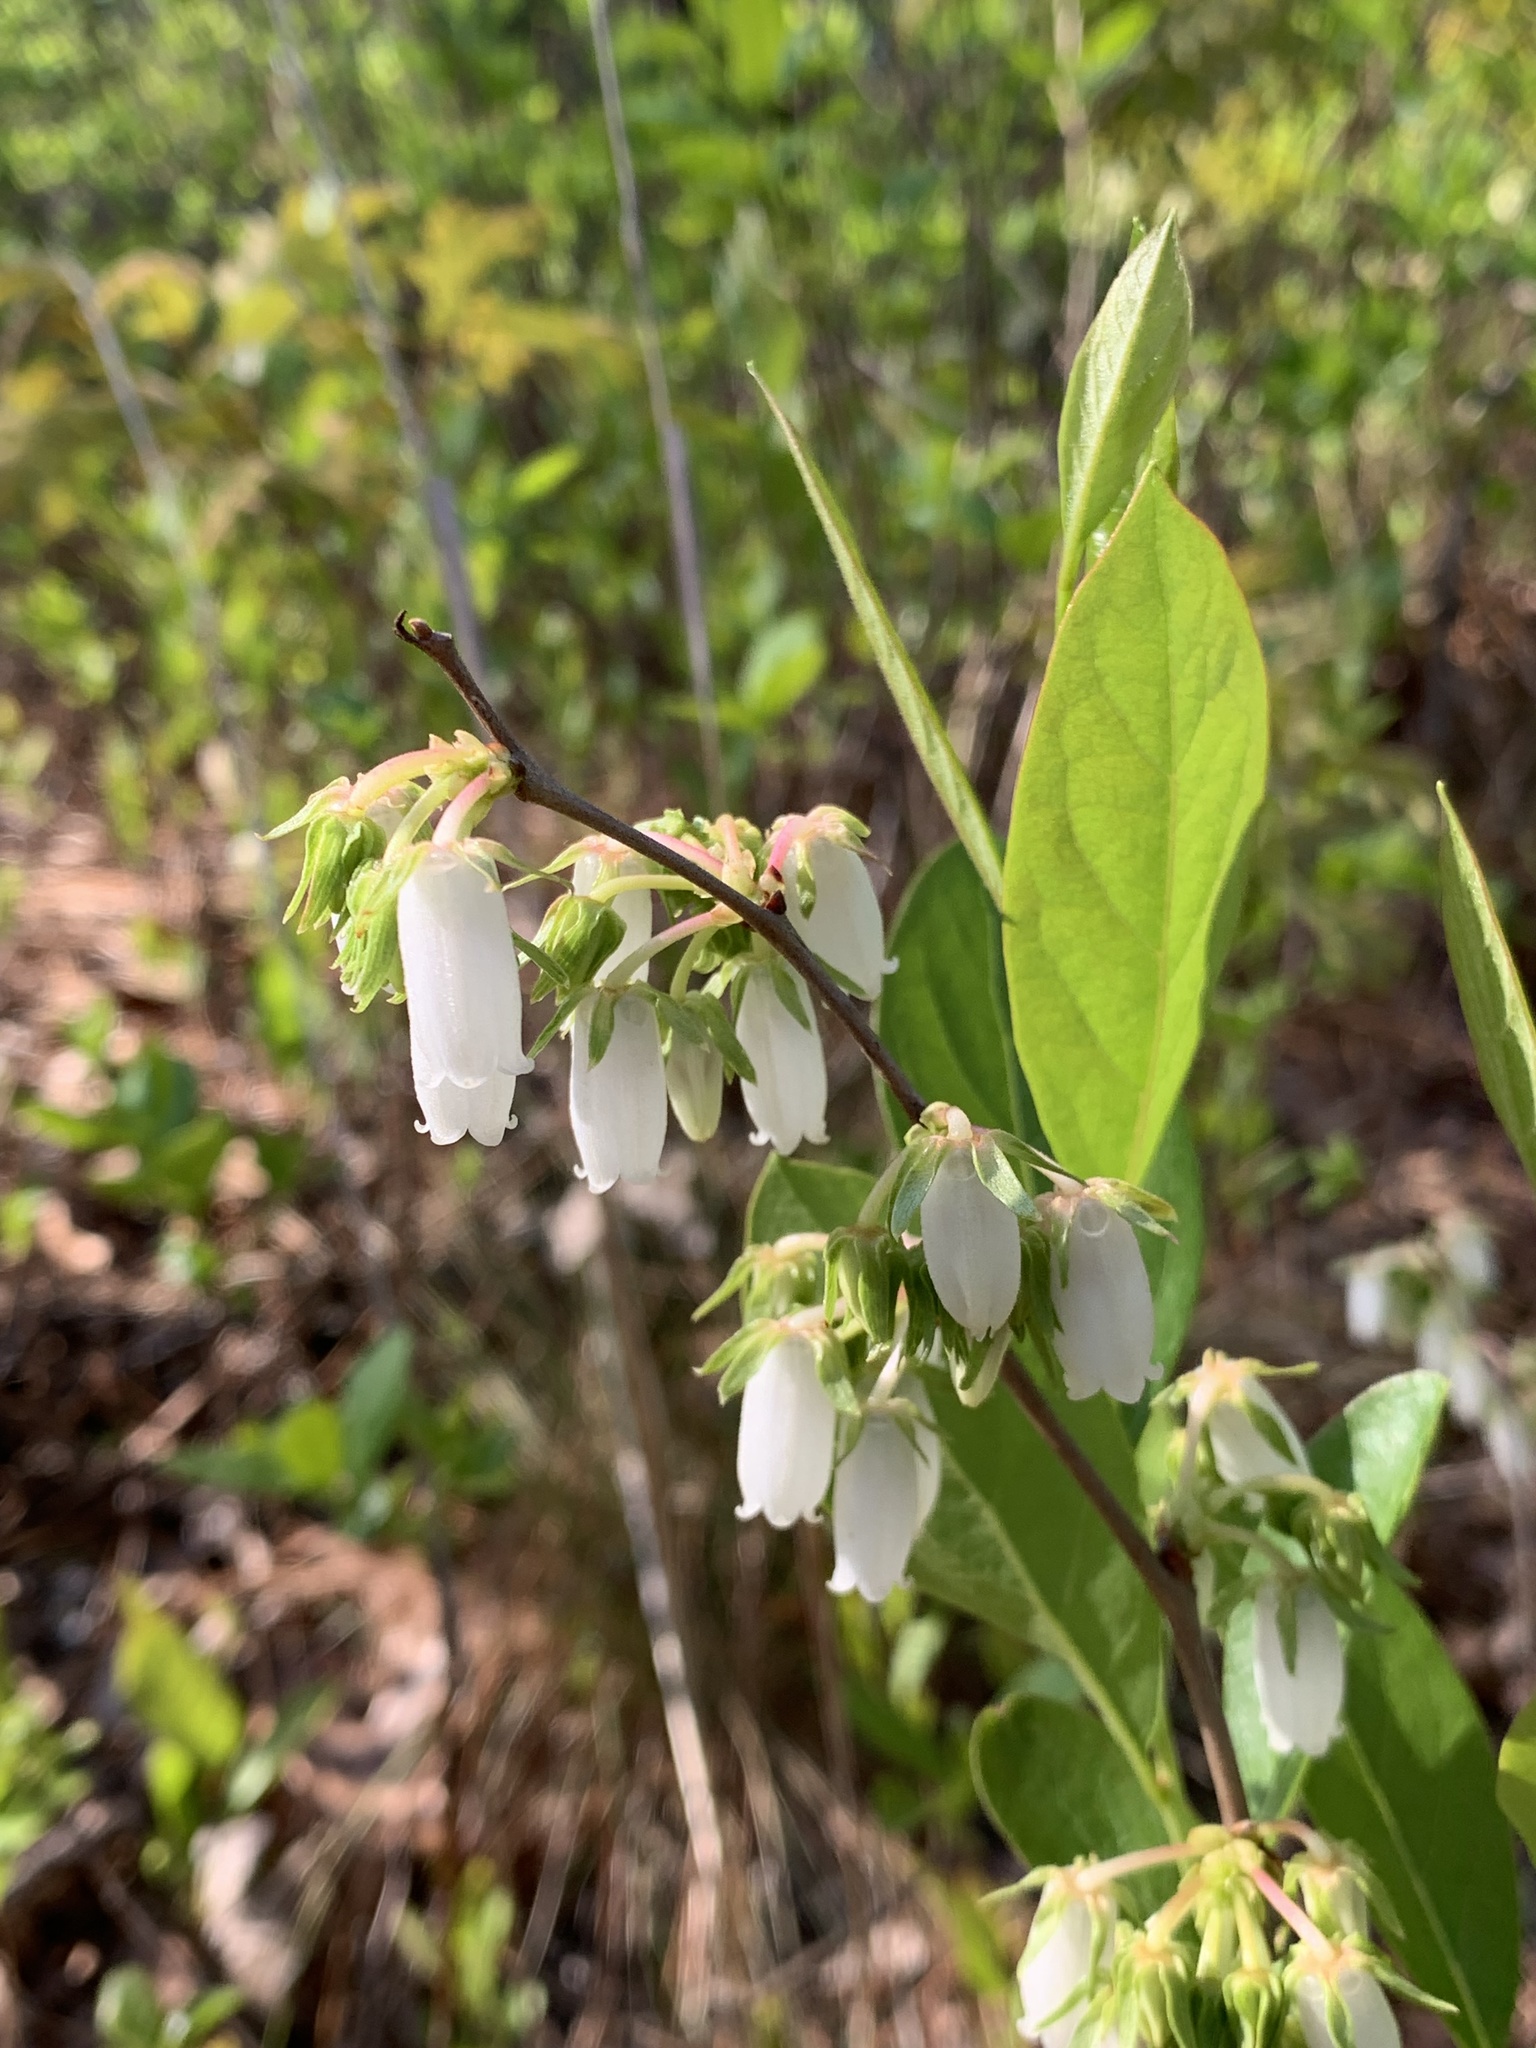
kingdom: Plantae
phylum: Tracheophyta
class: Magnoliopsida
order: Ericales
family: Ericaceae
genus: Lyonia
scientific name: Lyonia mariana
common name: Staggerbush
